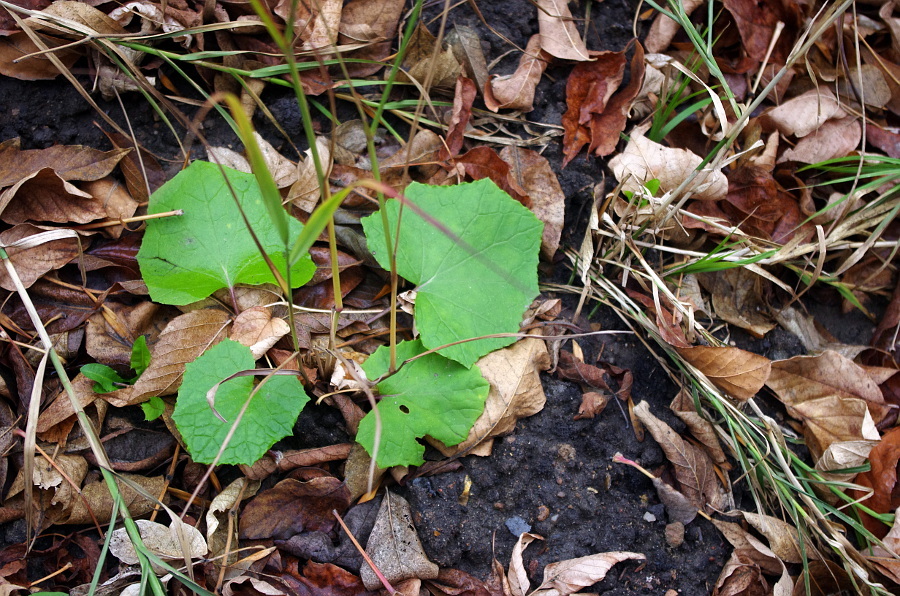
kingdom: Plantae
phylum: Tracheophyta
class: Magnoliopsida
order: Asterales
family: Asteraceae
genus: Tussilago
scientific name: Tussilago farfara
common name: Coltsfoot
